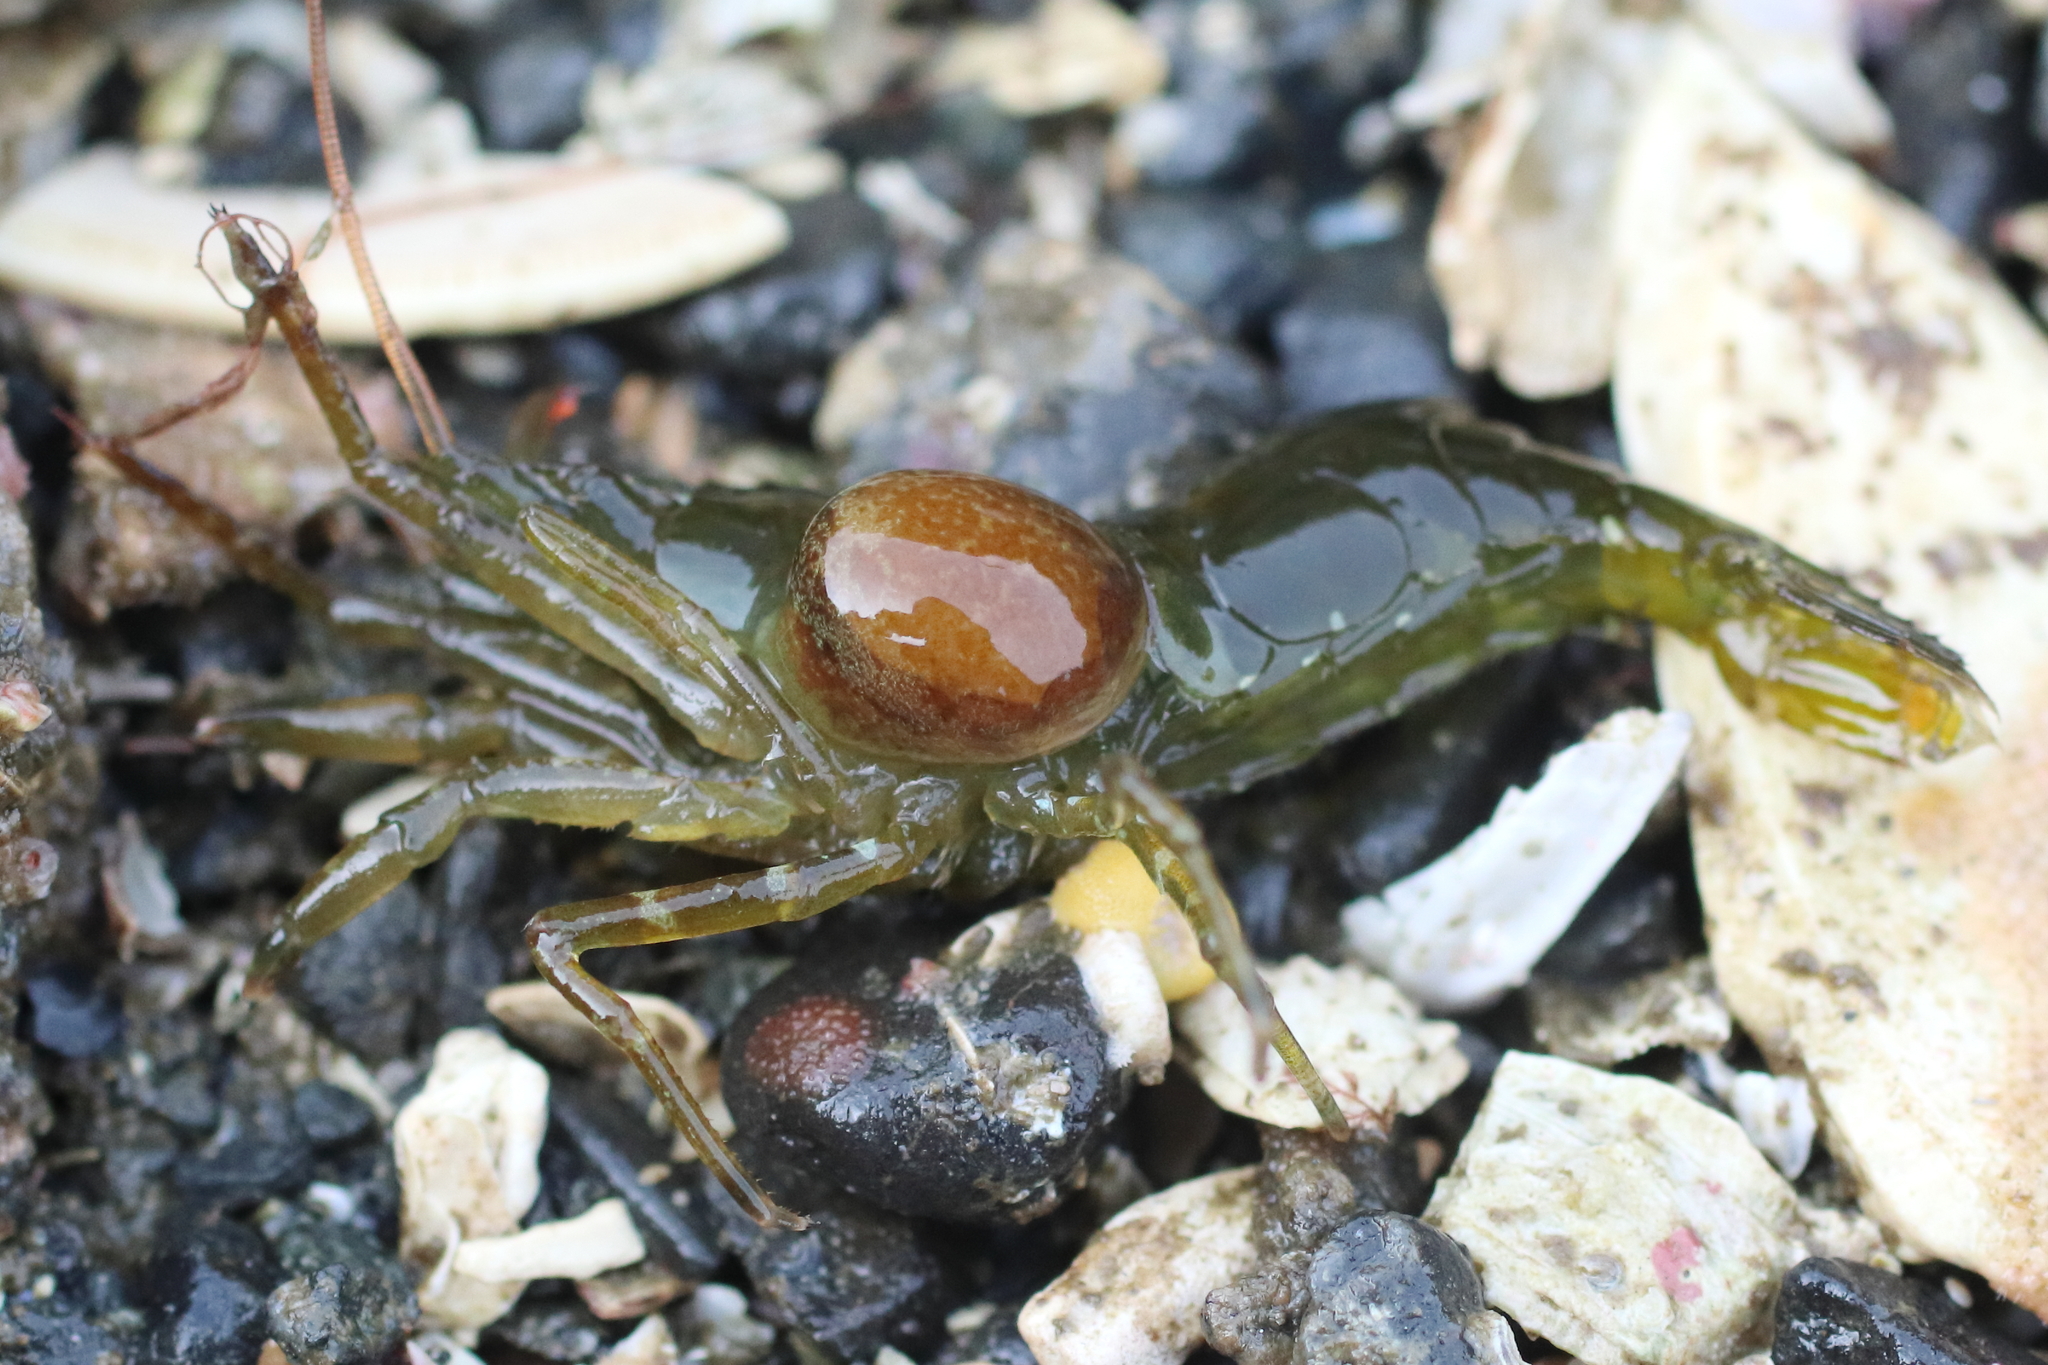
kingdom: Animalia
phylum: Arthropoda
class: Malacostraca
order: Decapoda
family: Thoridae
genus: Heptacarpus
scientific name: Heptacarpus brevirostris
